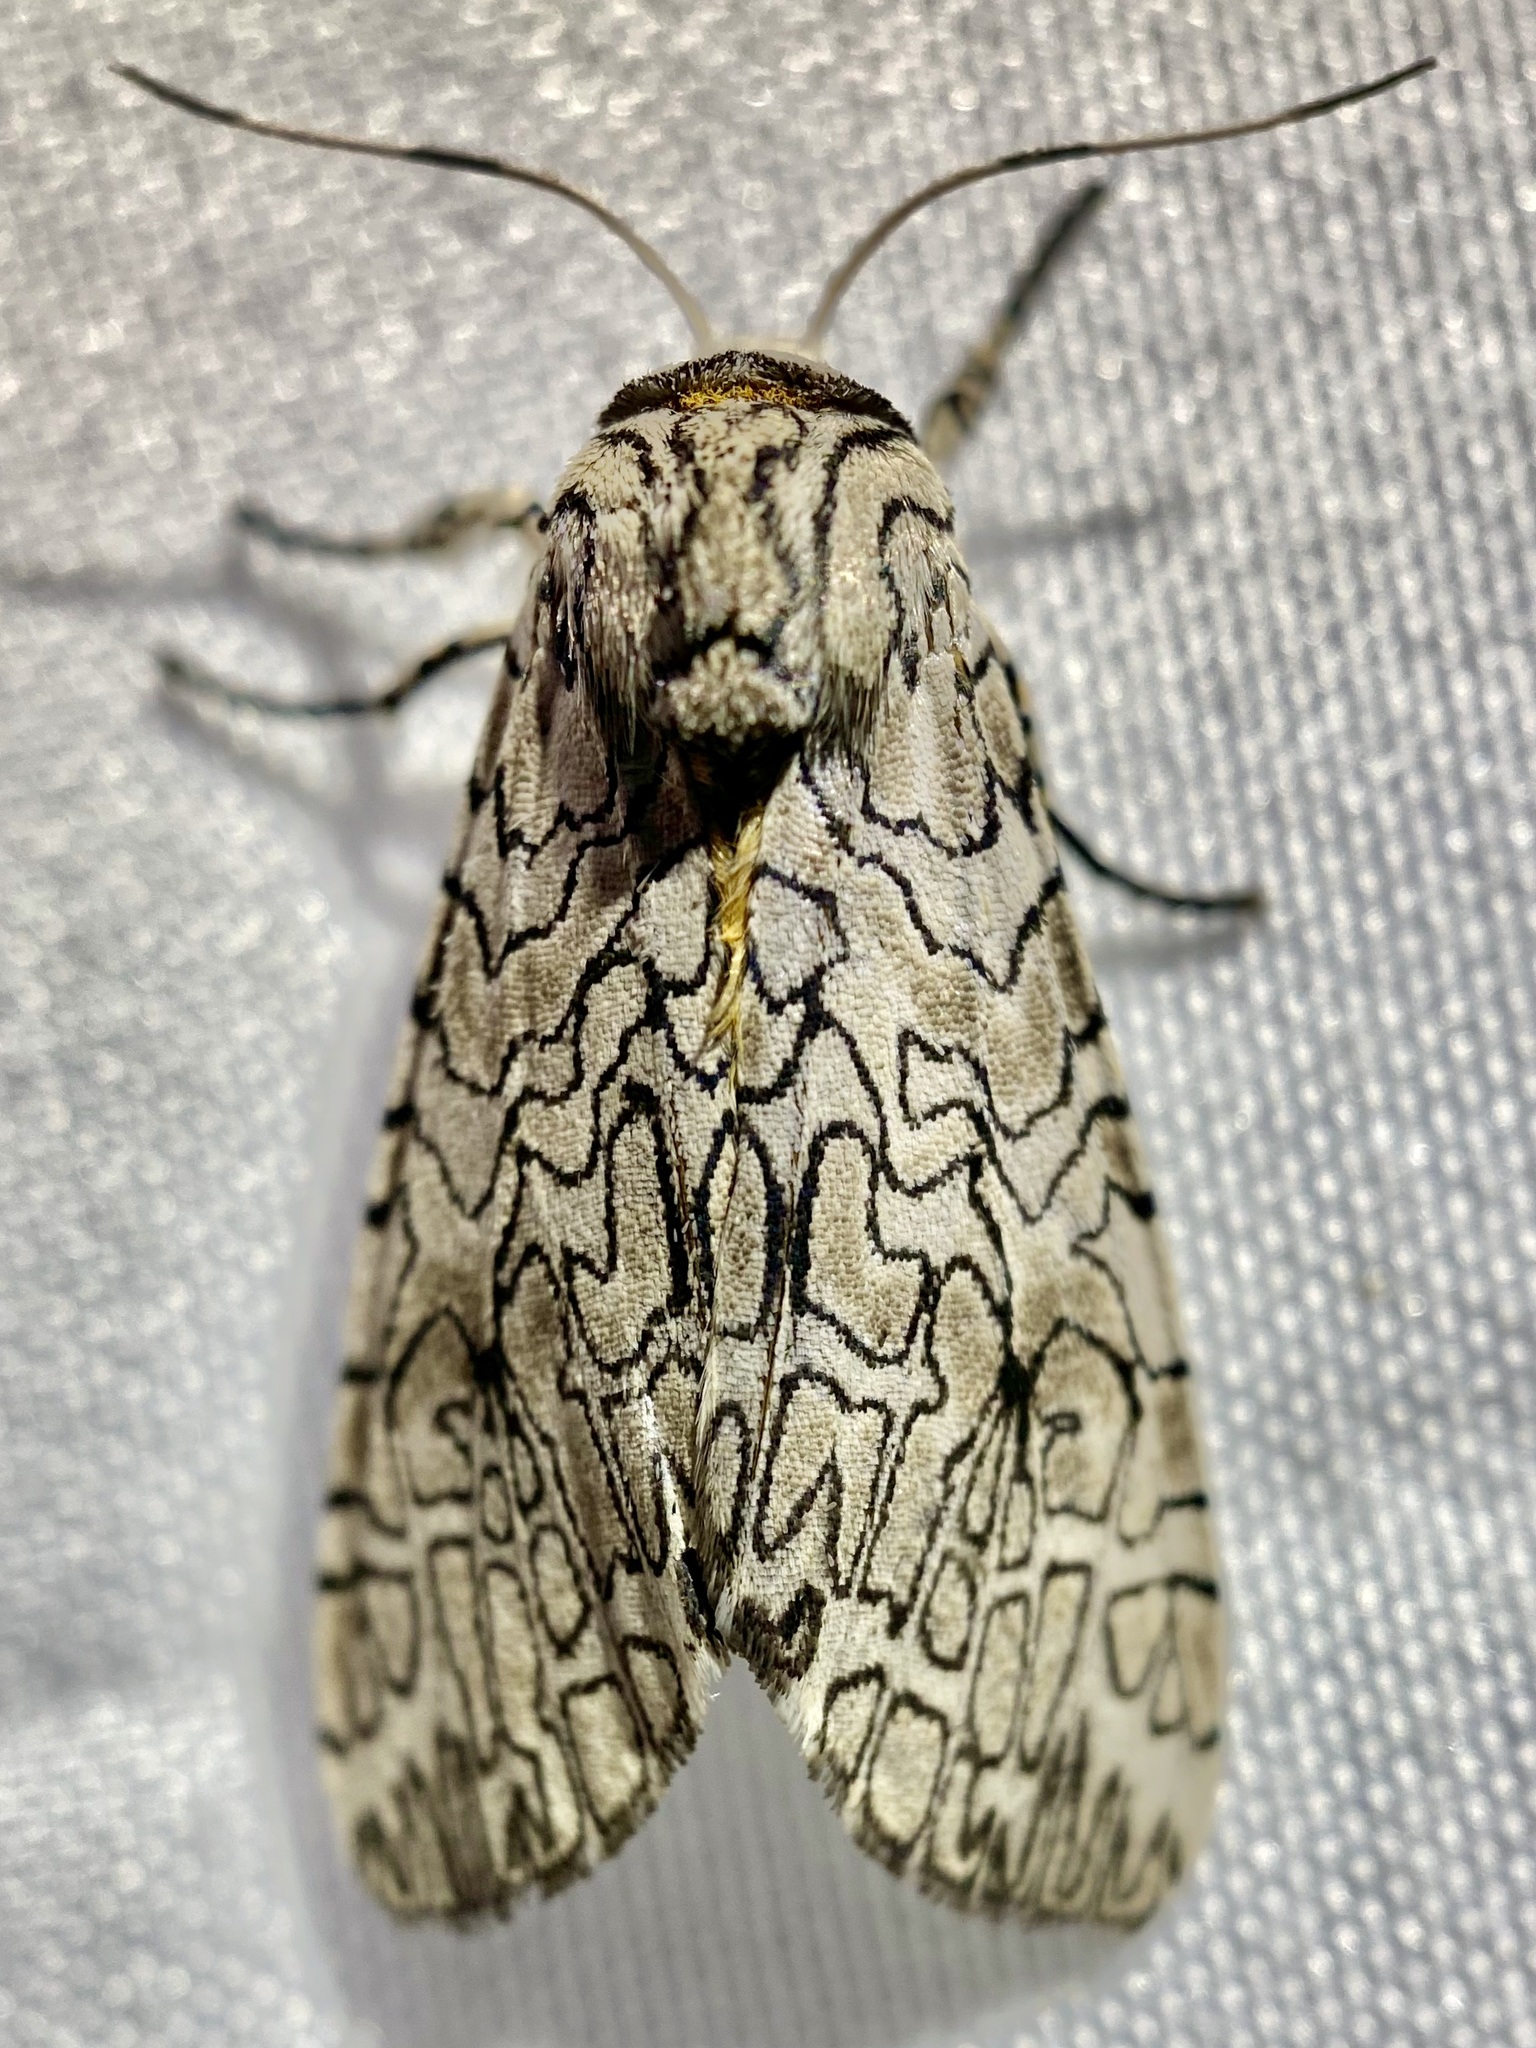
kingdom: Animalia
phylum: Arthropoda
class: Insecta
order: Lepidoptera
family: Erebidae
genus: Hypercompe
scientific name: Hypercompe suffusa
